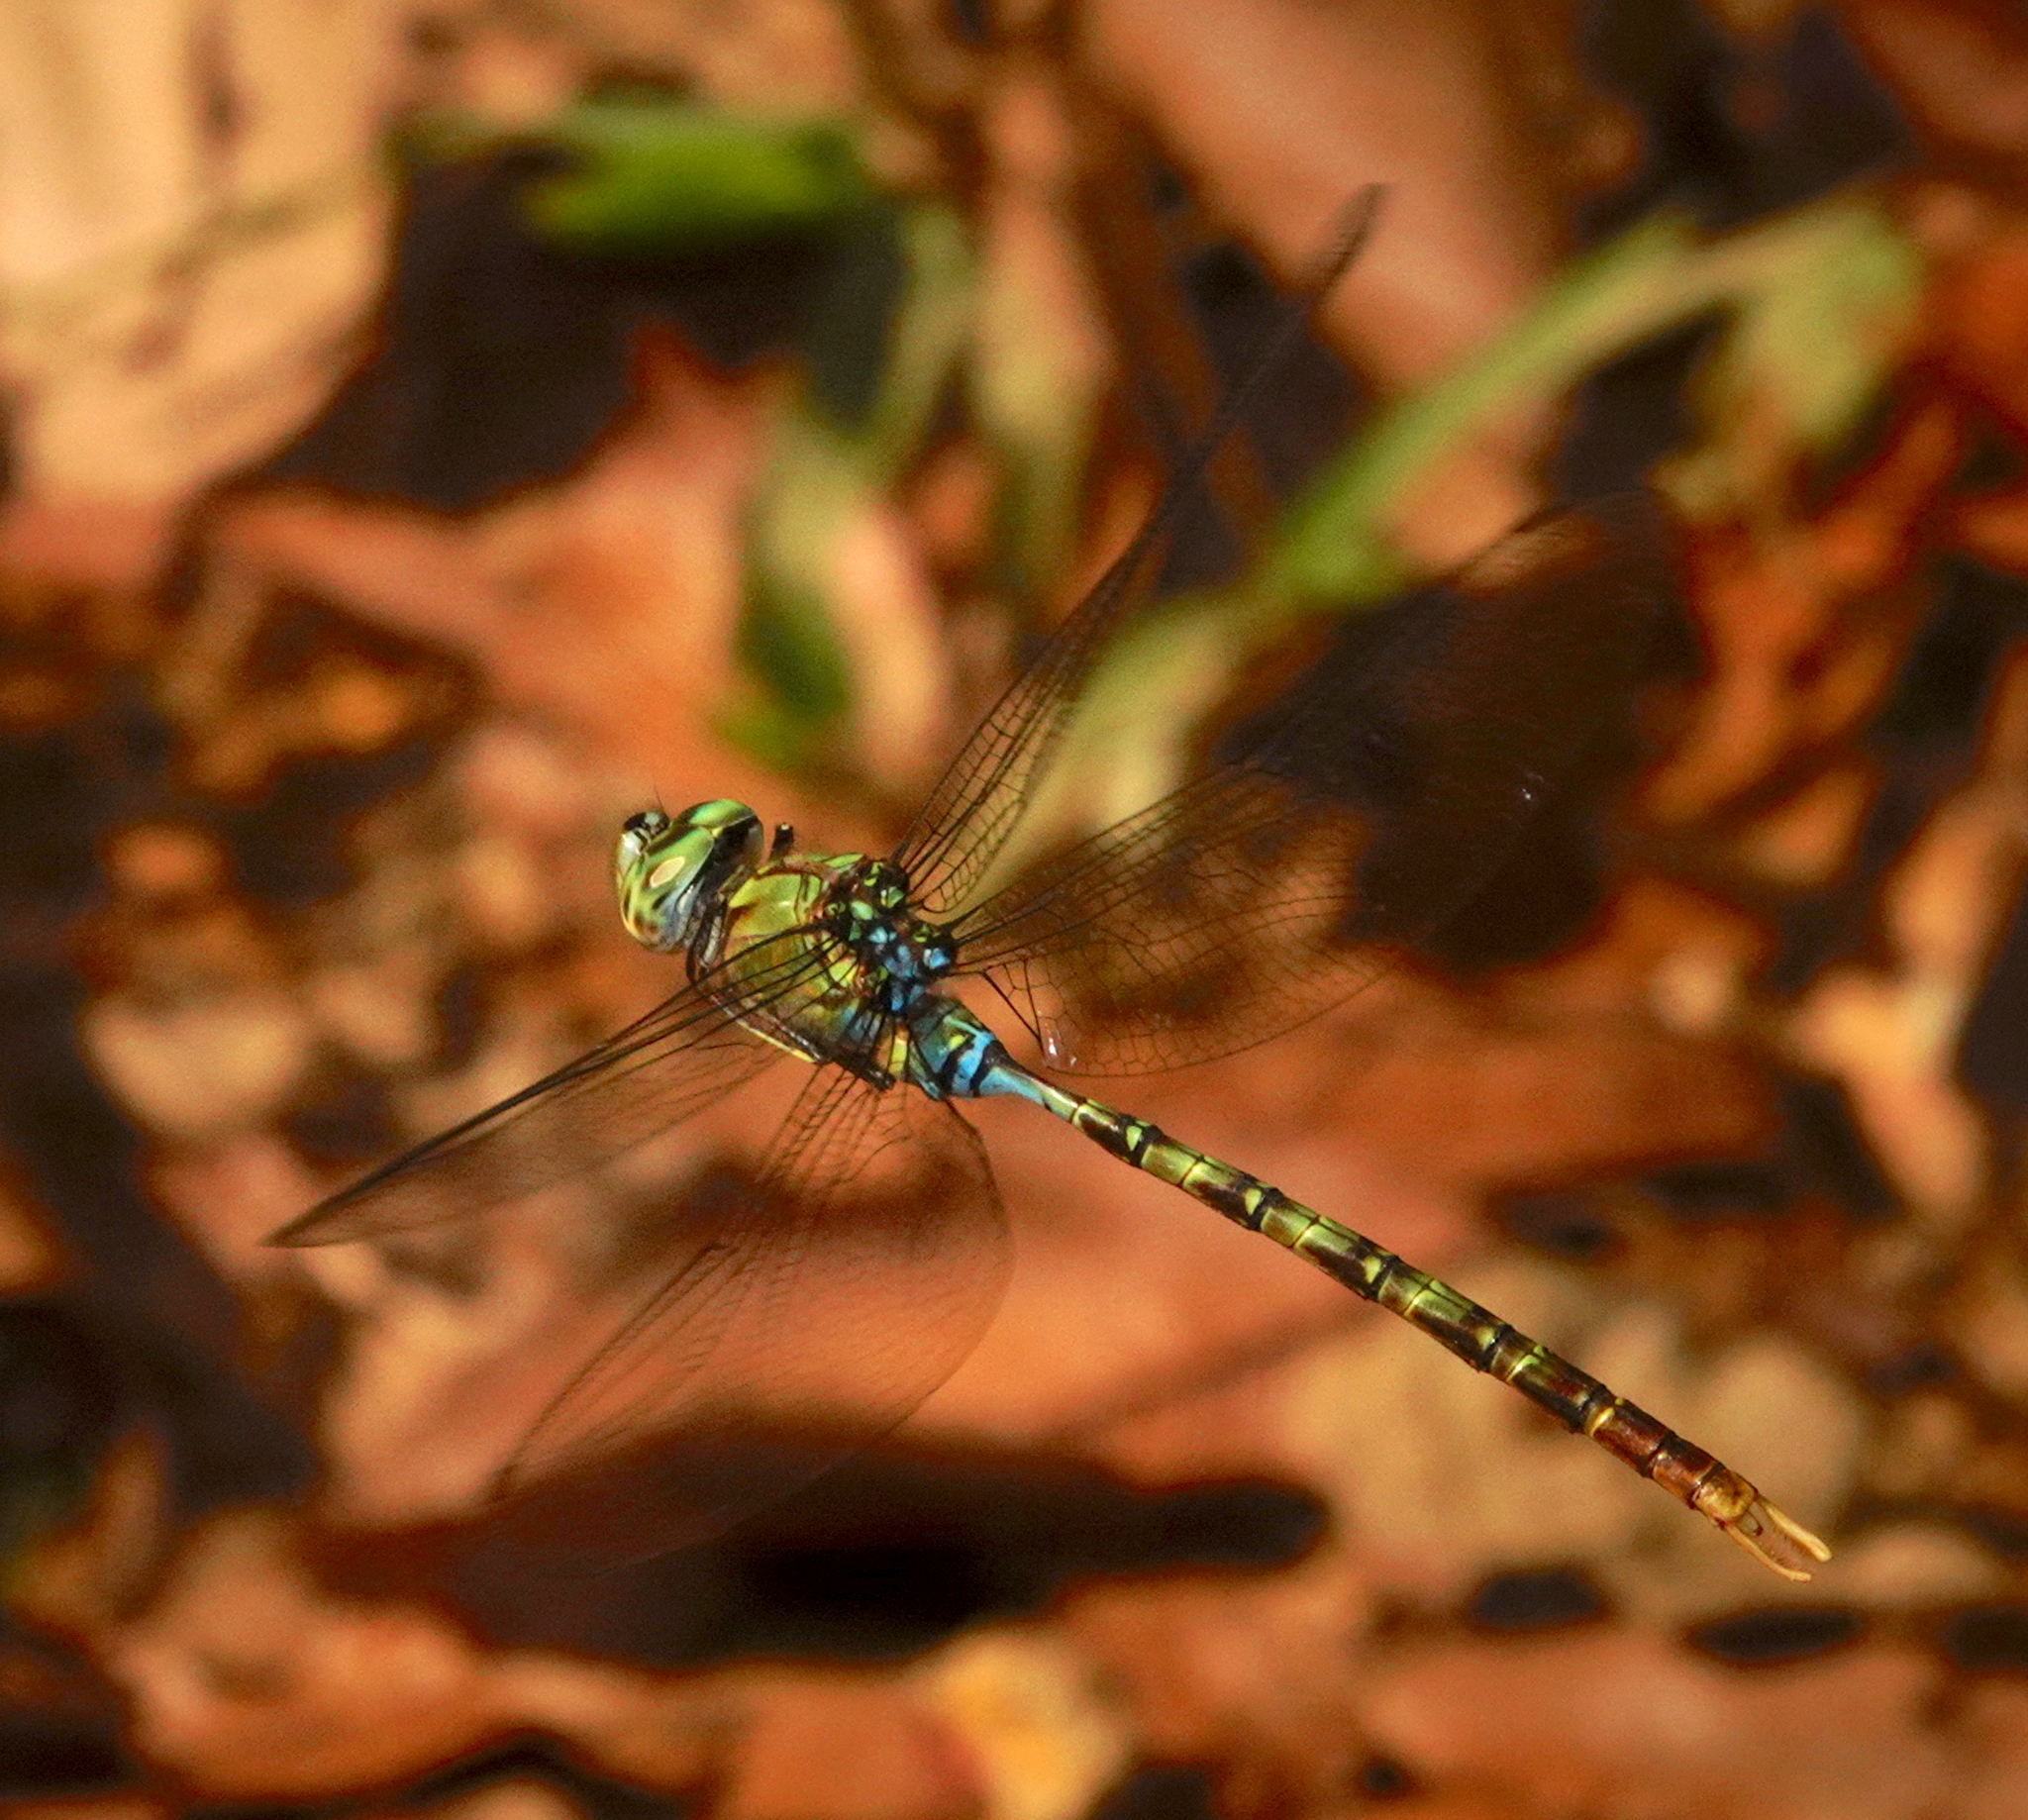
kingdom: Animalia
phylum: Arthropoda
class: Insecta
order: Odonata
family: Aeshnidae
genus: Gynacantha
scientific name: Gynacantha helenga
